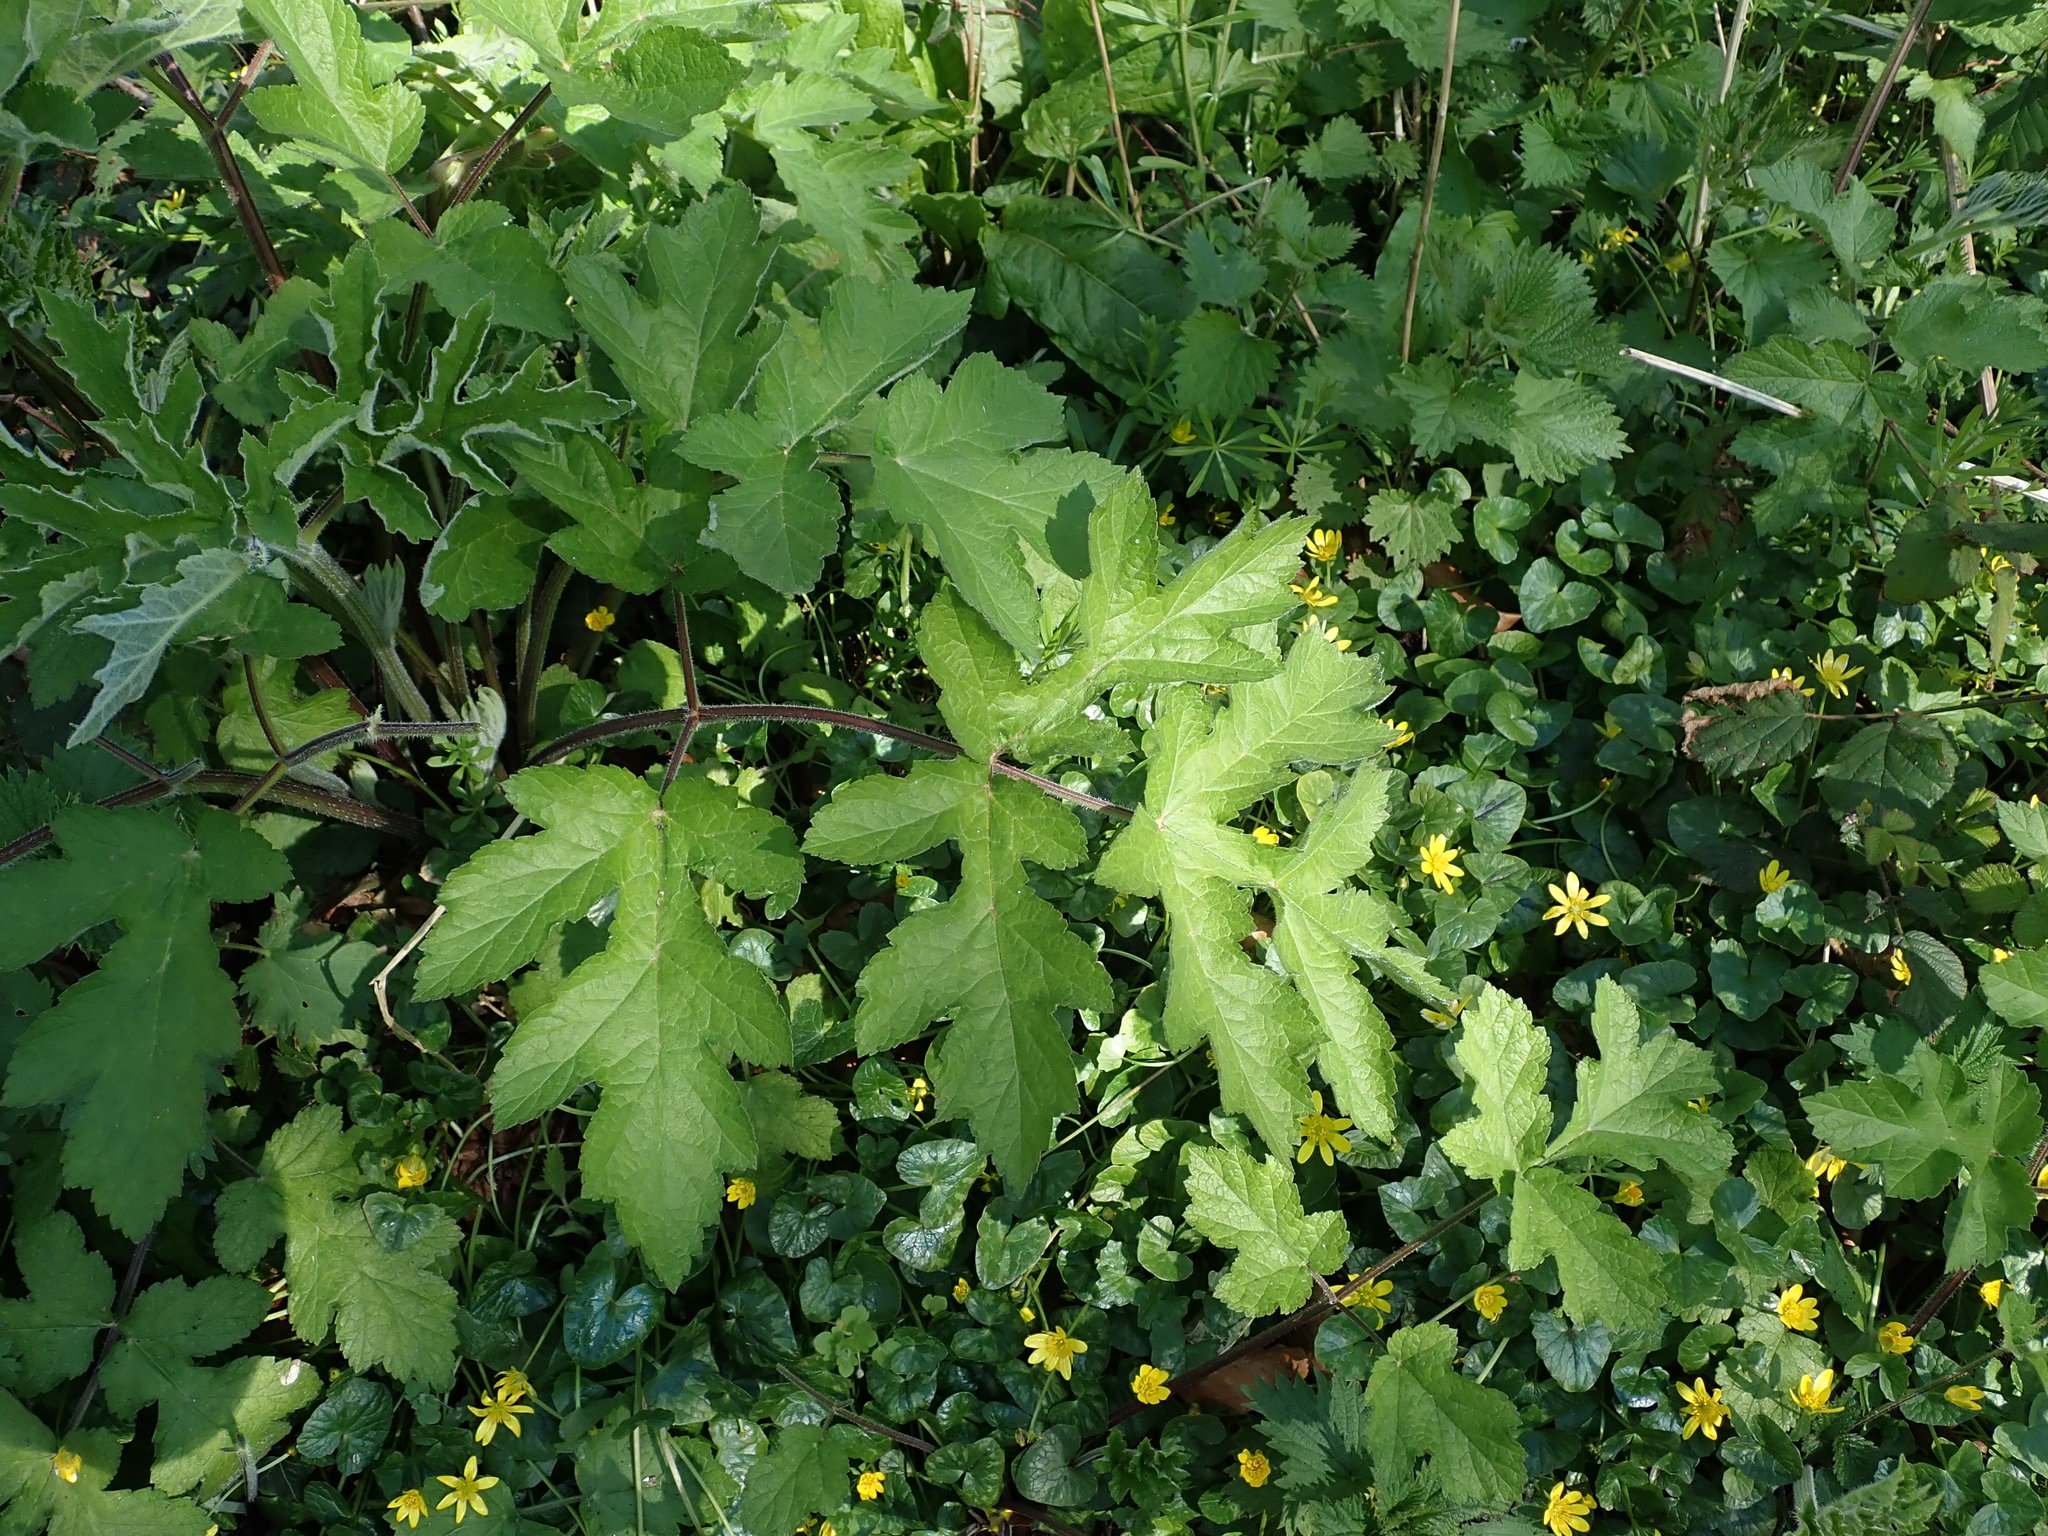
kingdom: Plantae
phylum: Tracheophyta
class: Magnoliopsida
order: Apiales
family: Apiaceae
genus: Heracleum
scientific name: Heracleum sphondylium
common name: Hogweed
